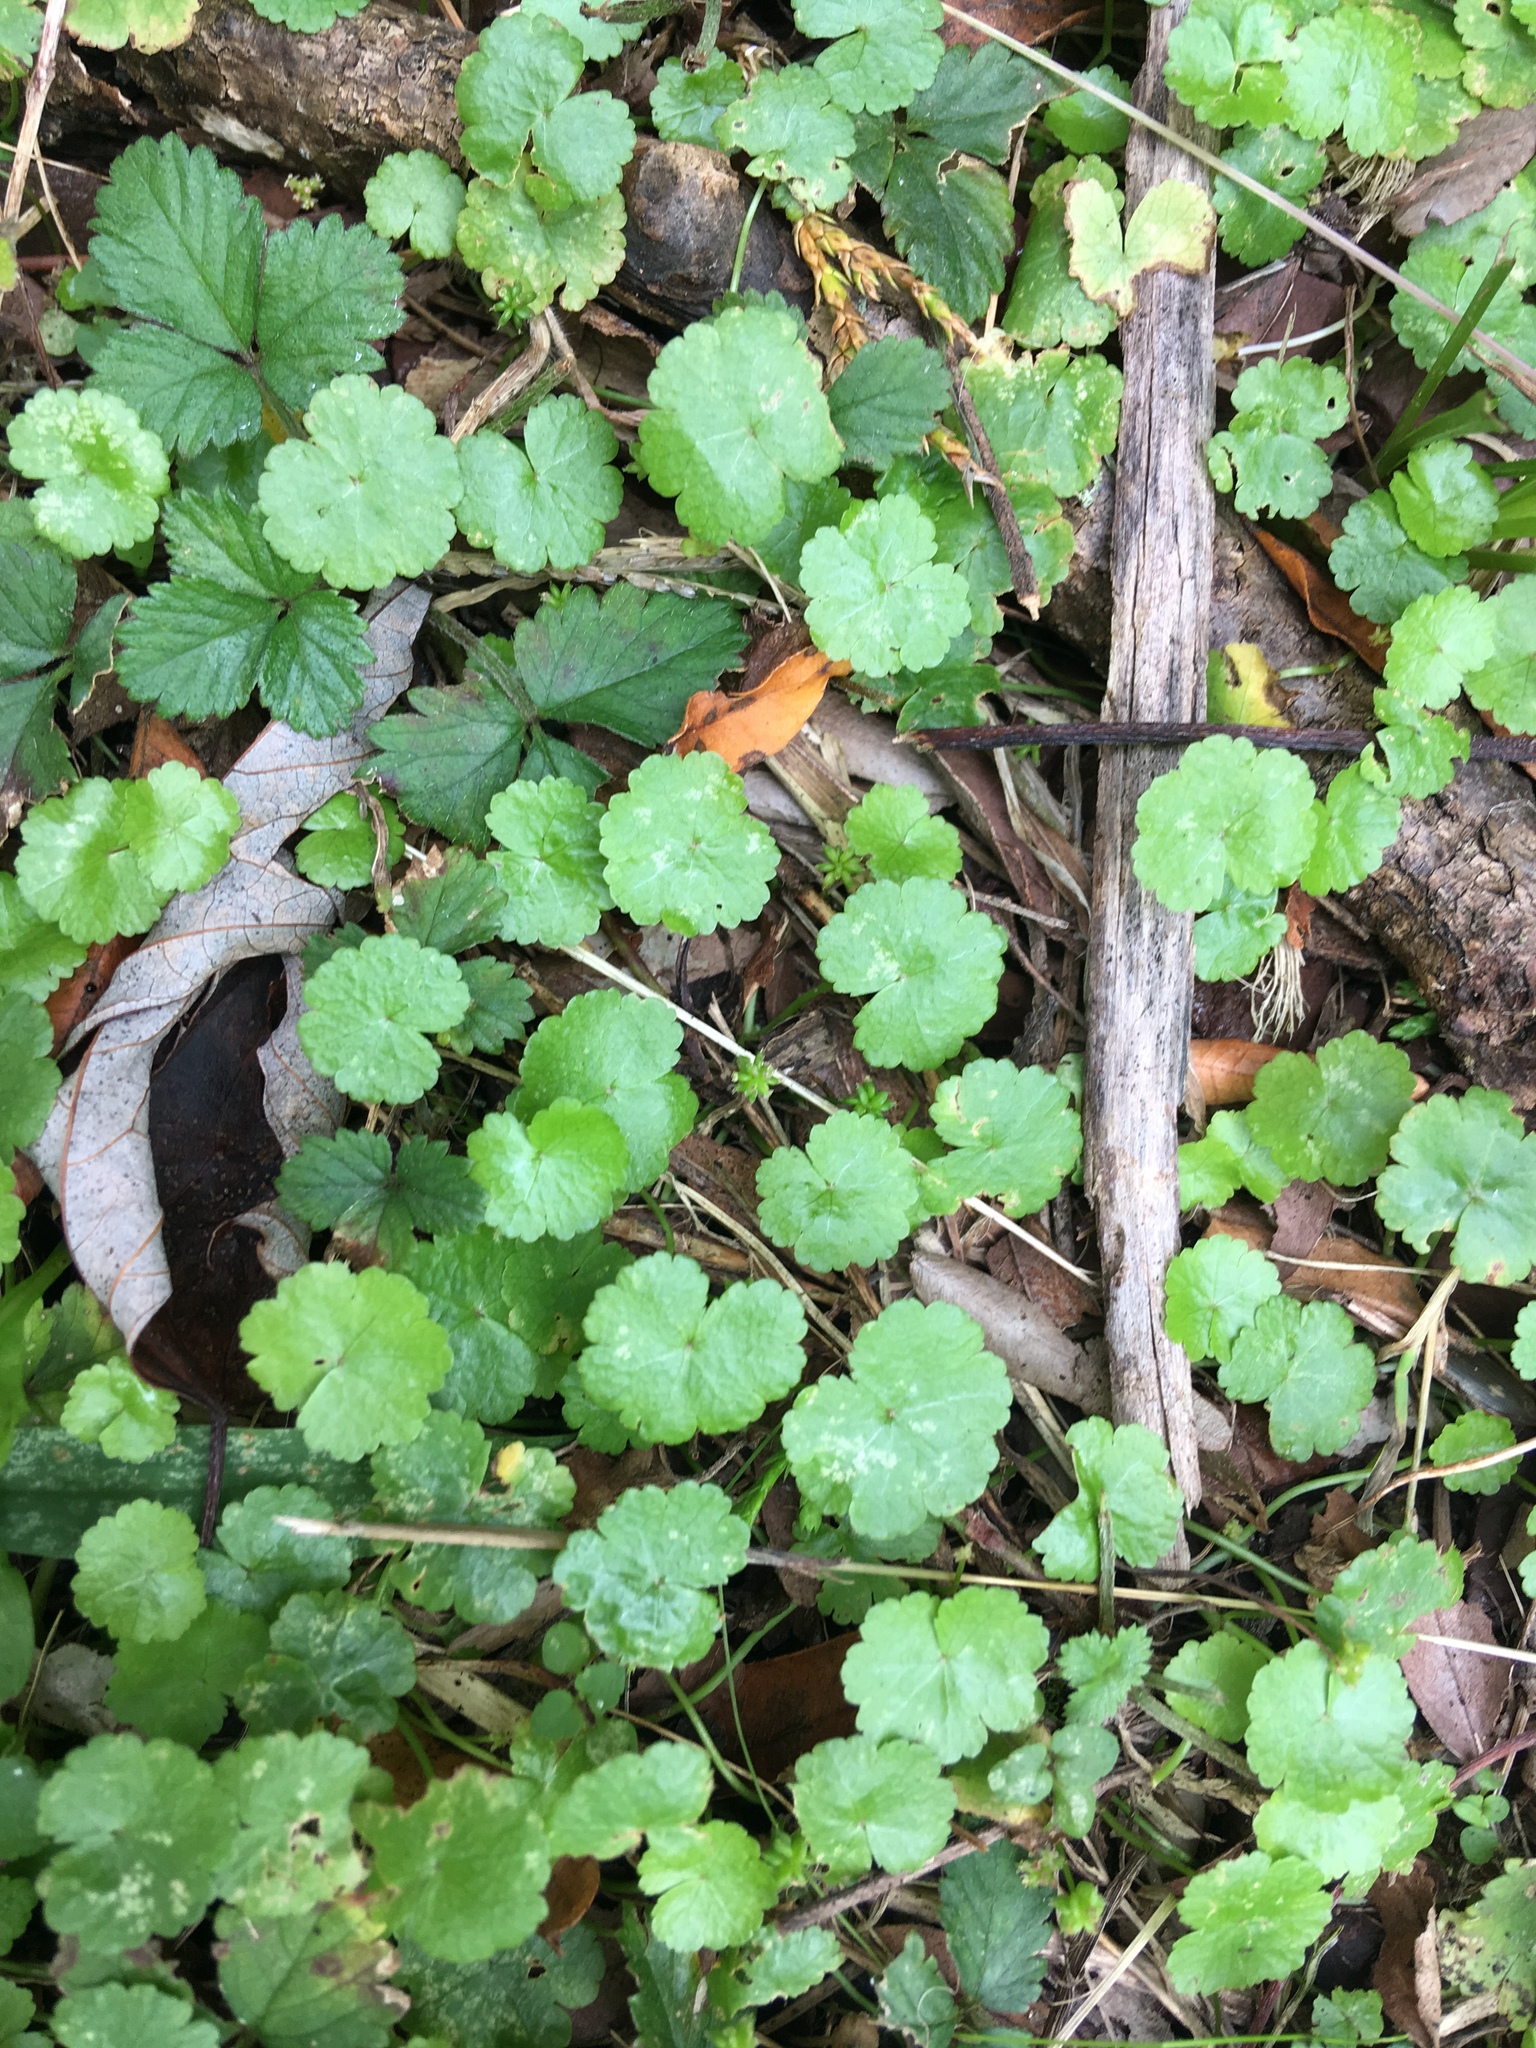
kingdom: Plantae
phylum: Tracheophyta
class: Magnoliopsida
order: Apiales
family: Araliaceae
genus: Hydrocotyle
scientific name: Hydrocotyle sibthorpioides
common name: Lawn marshpennywort
